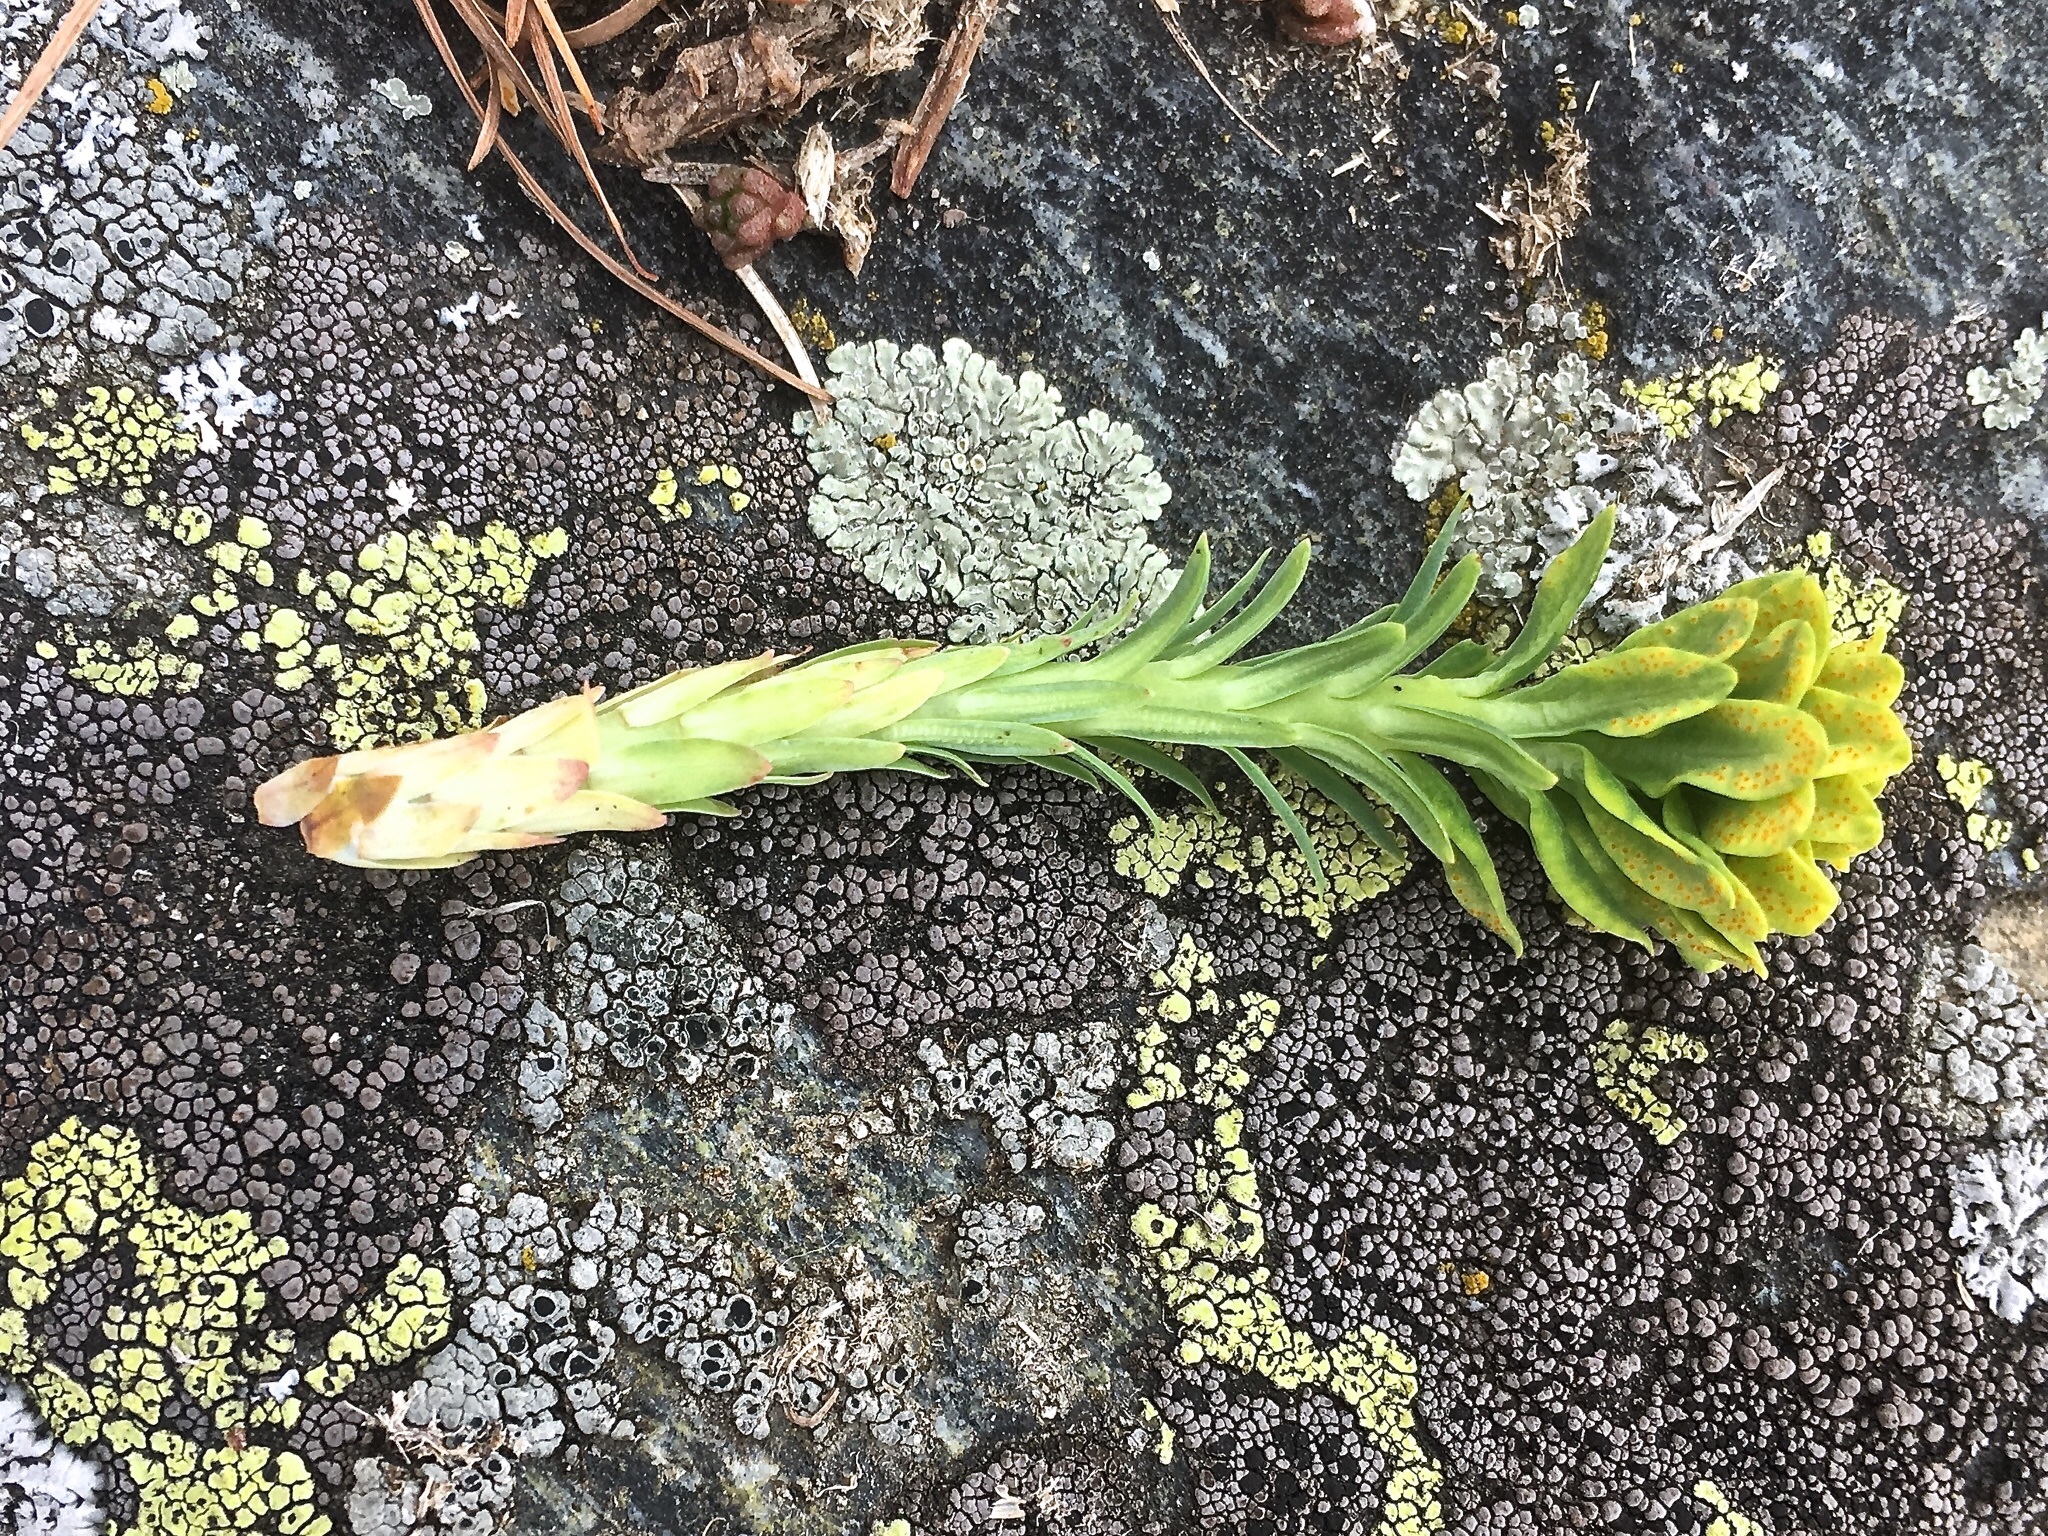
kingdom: Plantae
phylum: Tracheophyta
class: Magnoliopsida
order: Malpighiales
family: Euphorbiaceae
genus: Euphorbia
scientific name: Euphorbia cyparissias
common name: Cypress spurge
